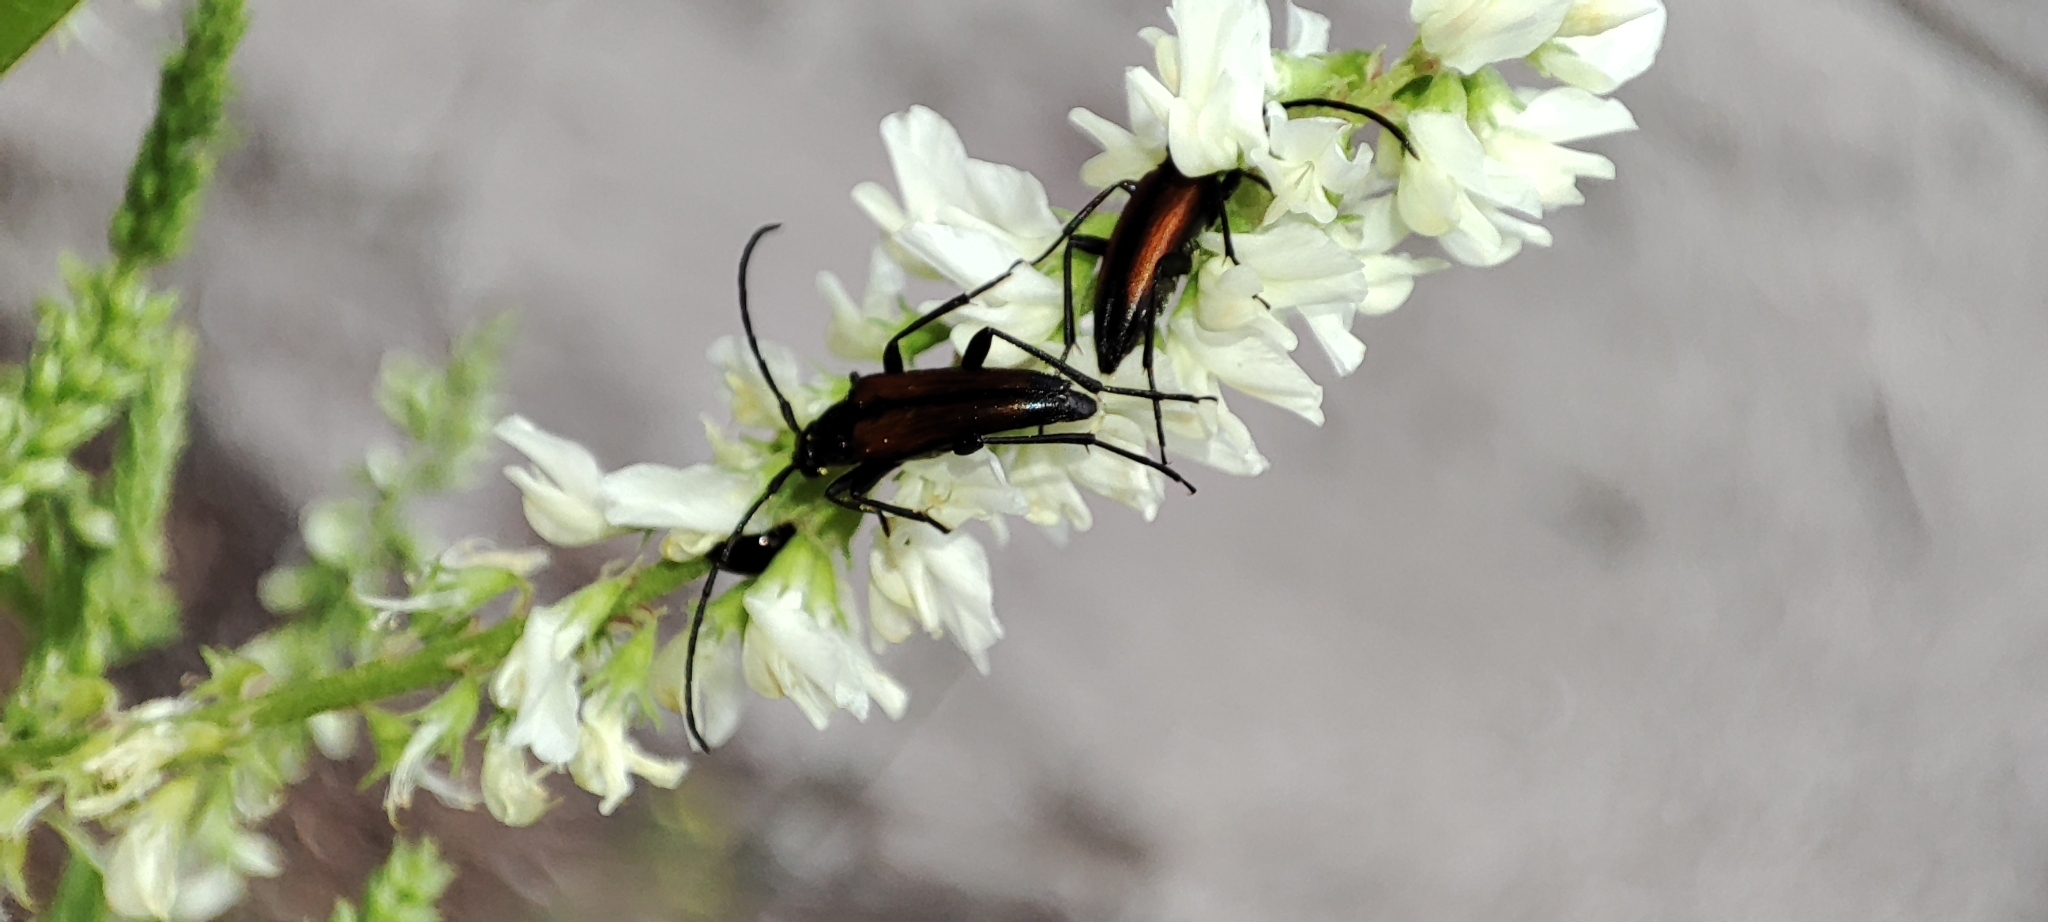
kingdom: Animalia
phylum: Arthropoda
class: Insecta
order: Coleoptera
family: Cerambycidae
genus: Stenurella
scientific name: Stenurella melanura
